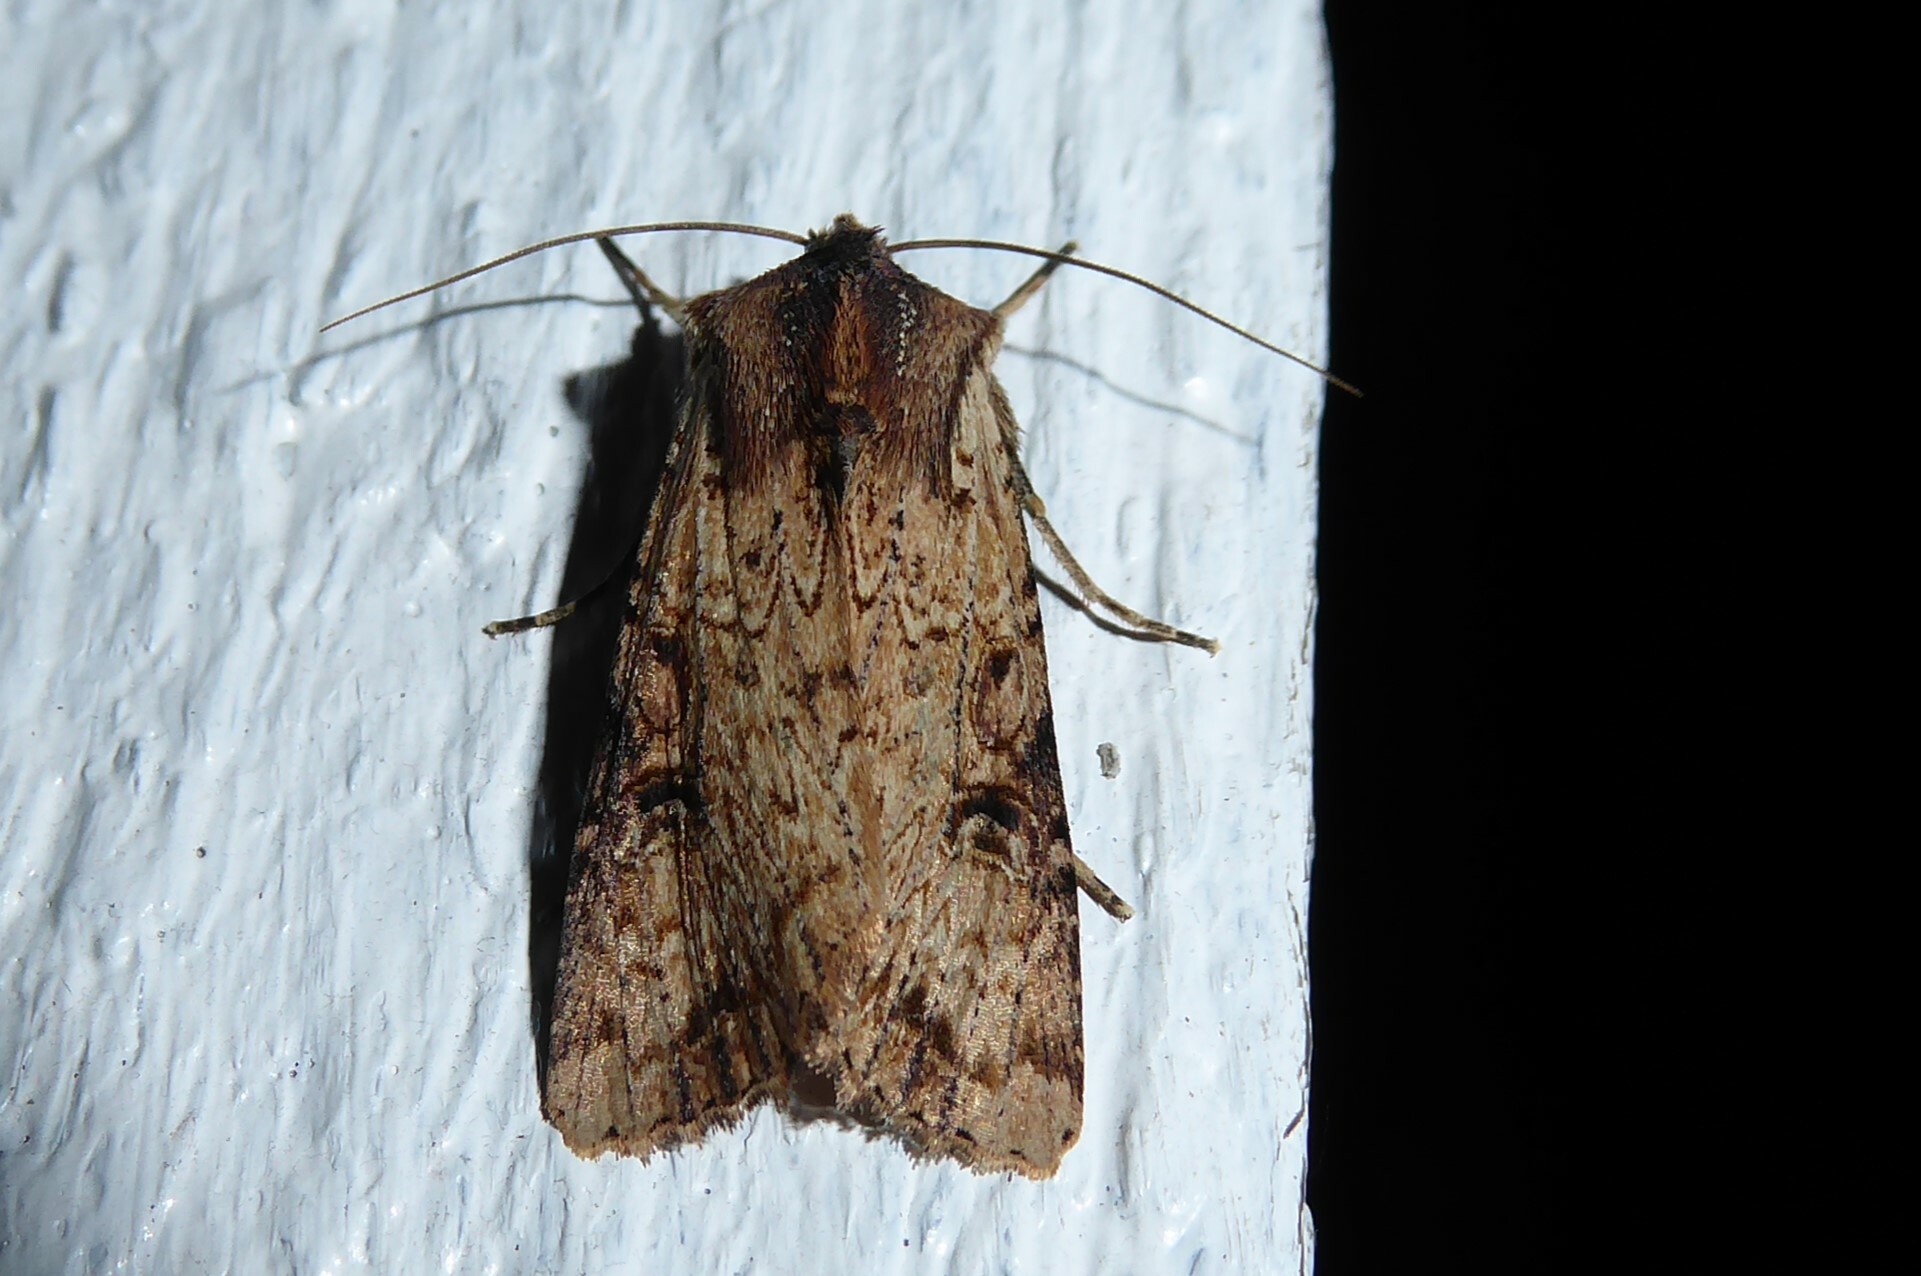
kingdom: Animalia
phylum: Arthropoda
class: Insecta
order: Lepidoptera
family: Noctuidae
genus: Ichneutica
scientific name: Ichneutica omoplaca
